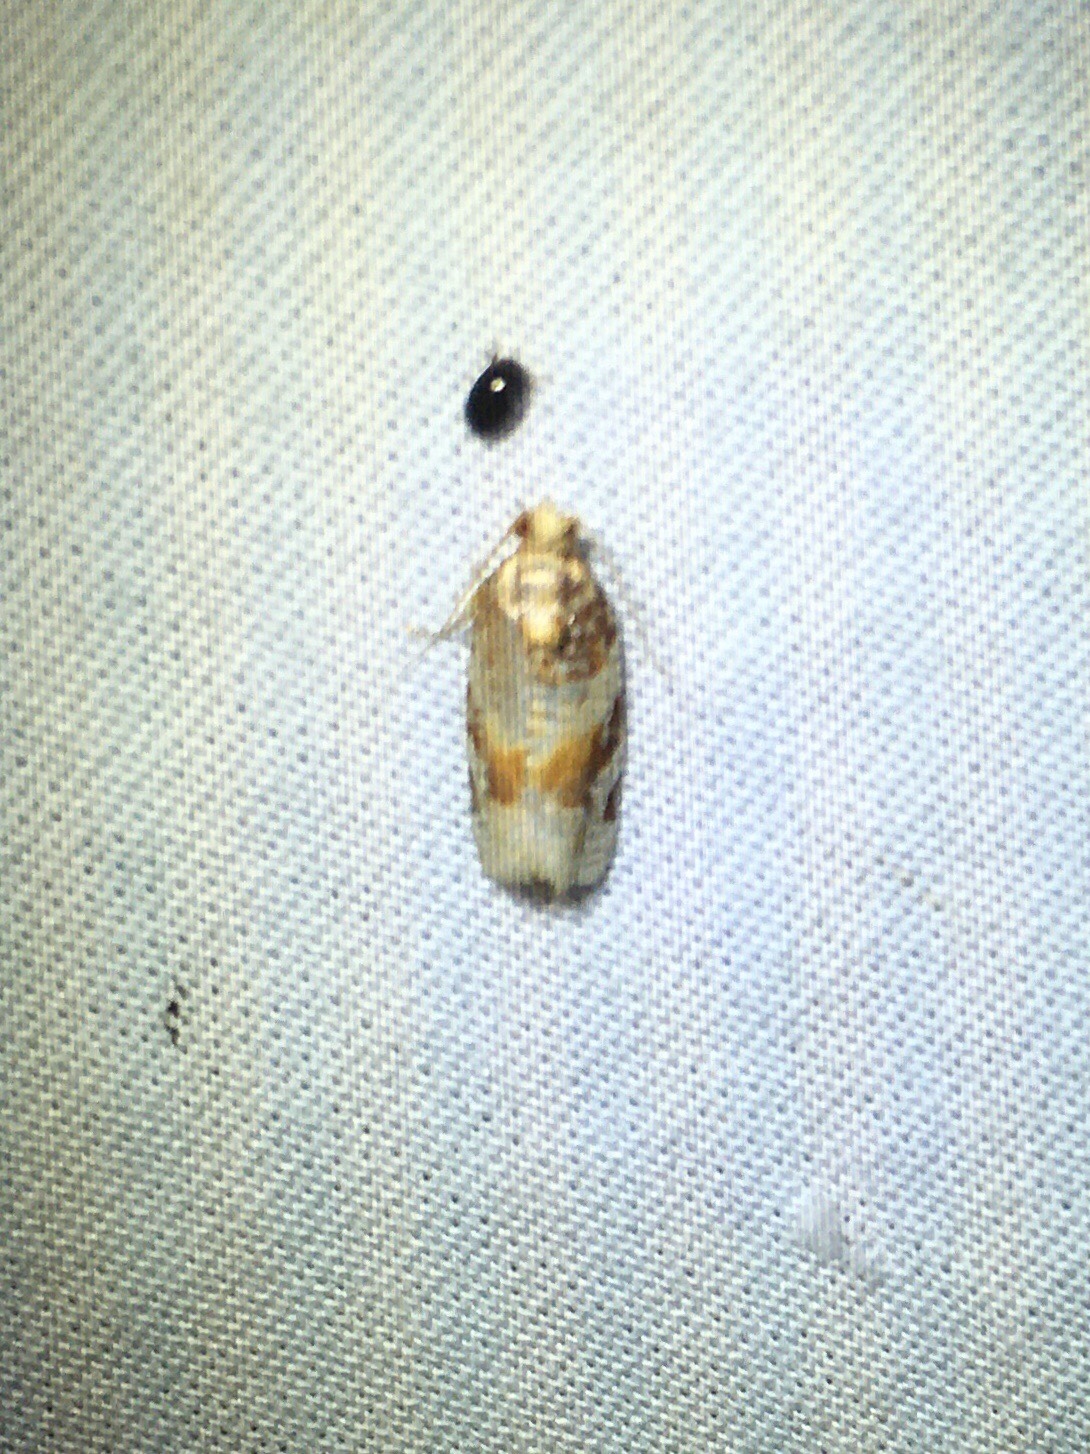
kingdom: Animalia
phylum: Arthropoda
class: Insecta
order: Lepidoptera
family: Tortricidae
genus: Argyrotaenia
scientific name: Argyrotaenia kimballi
